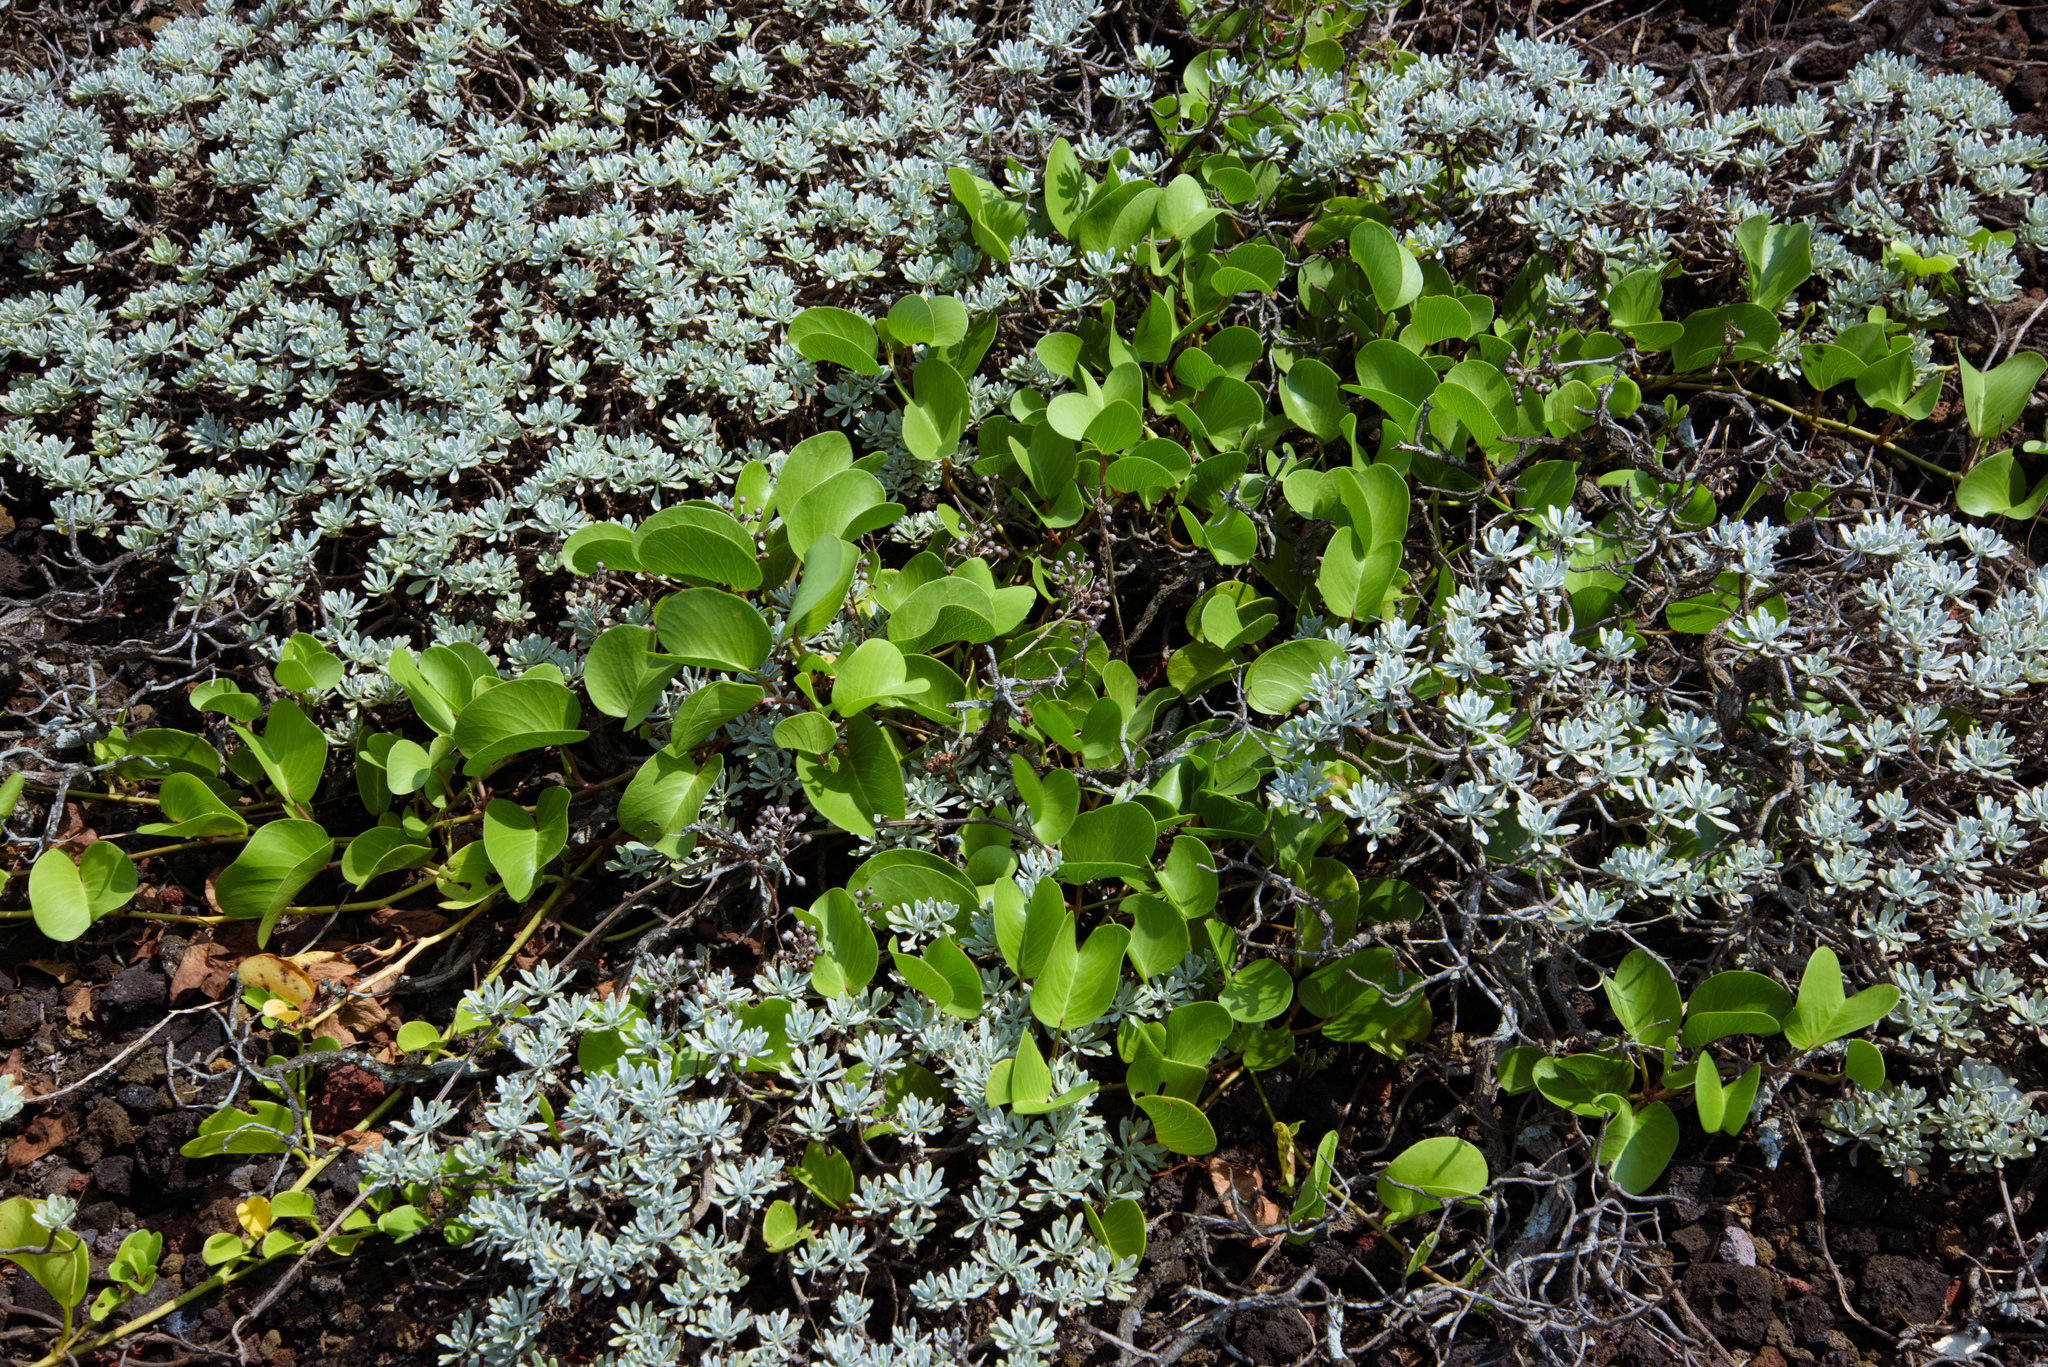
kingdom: Plantae
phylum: Tracheophyta
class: Magnoliopsida
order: Solanales
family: Convolvulaceae
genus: Ipomoea
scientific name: Ipomoea pes-caprae
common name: Beach morning glory
